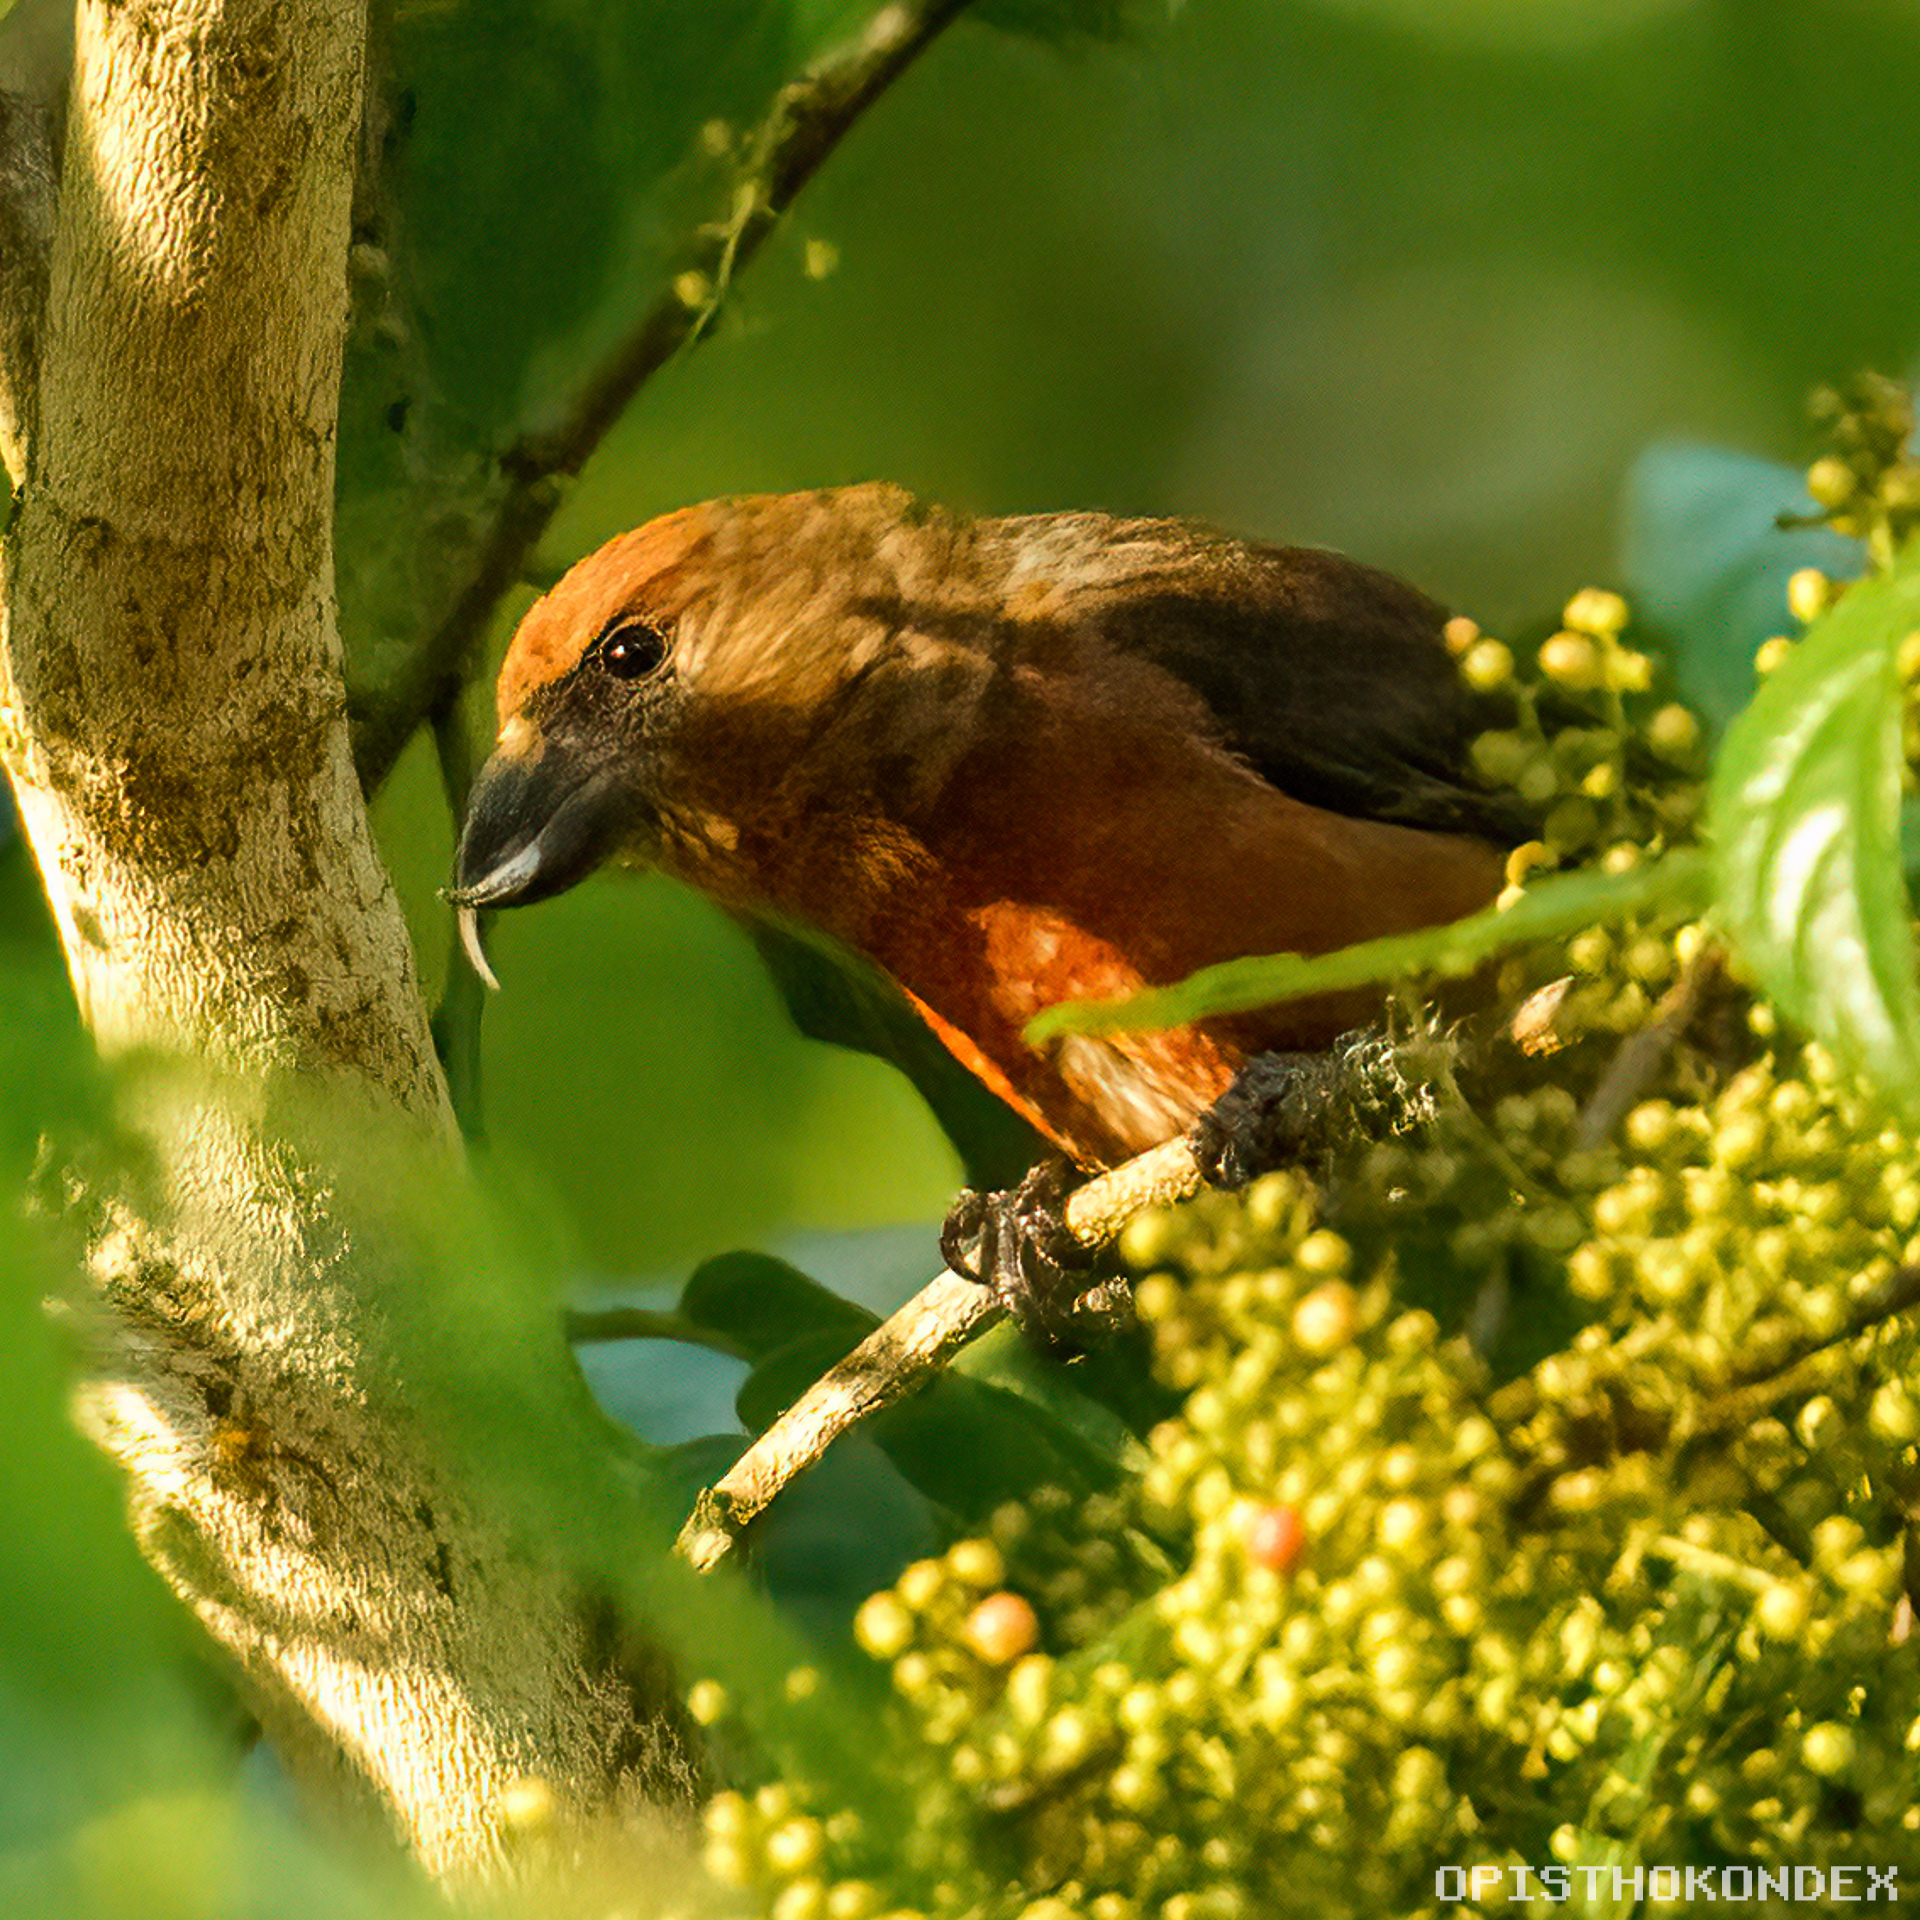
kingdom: Animalia
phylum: Chordata
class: Aves
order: Passeriformes
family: Fringillidae
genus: Loxia
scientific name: Loxia curvirostra
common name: Red crossbill
